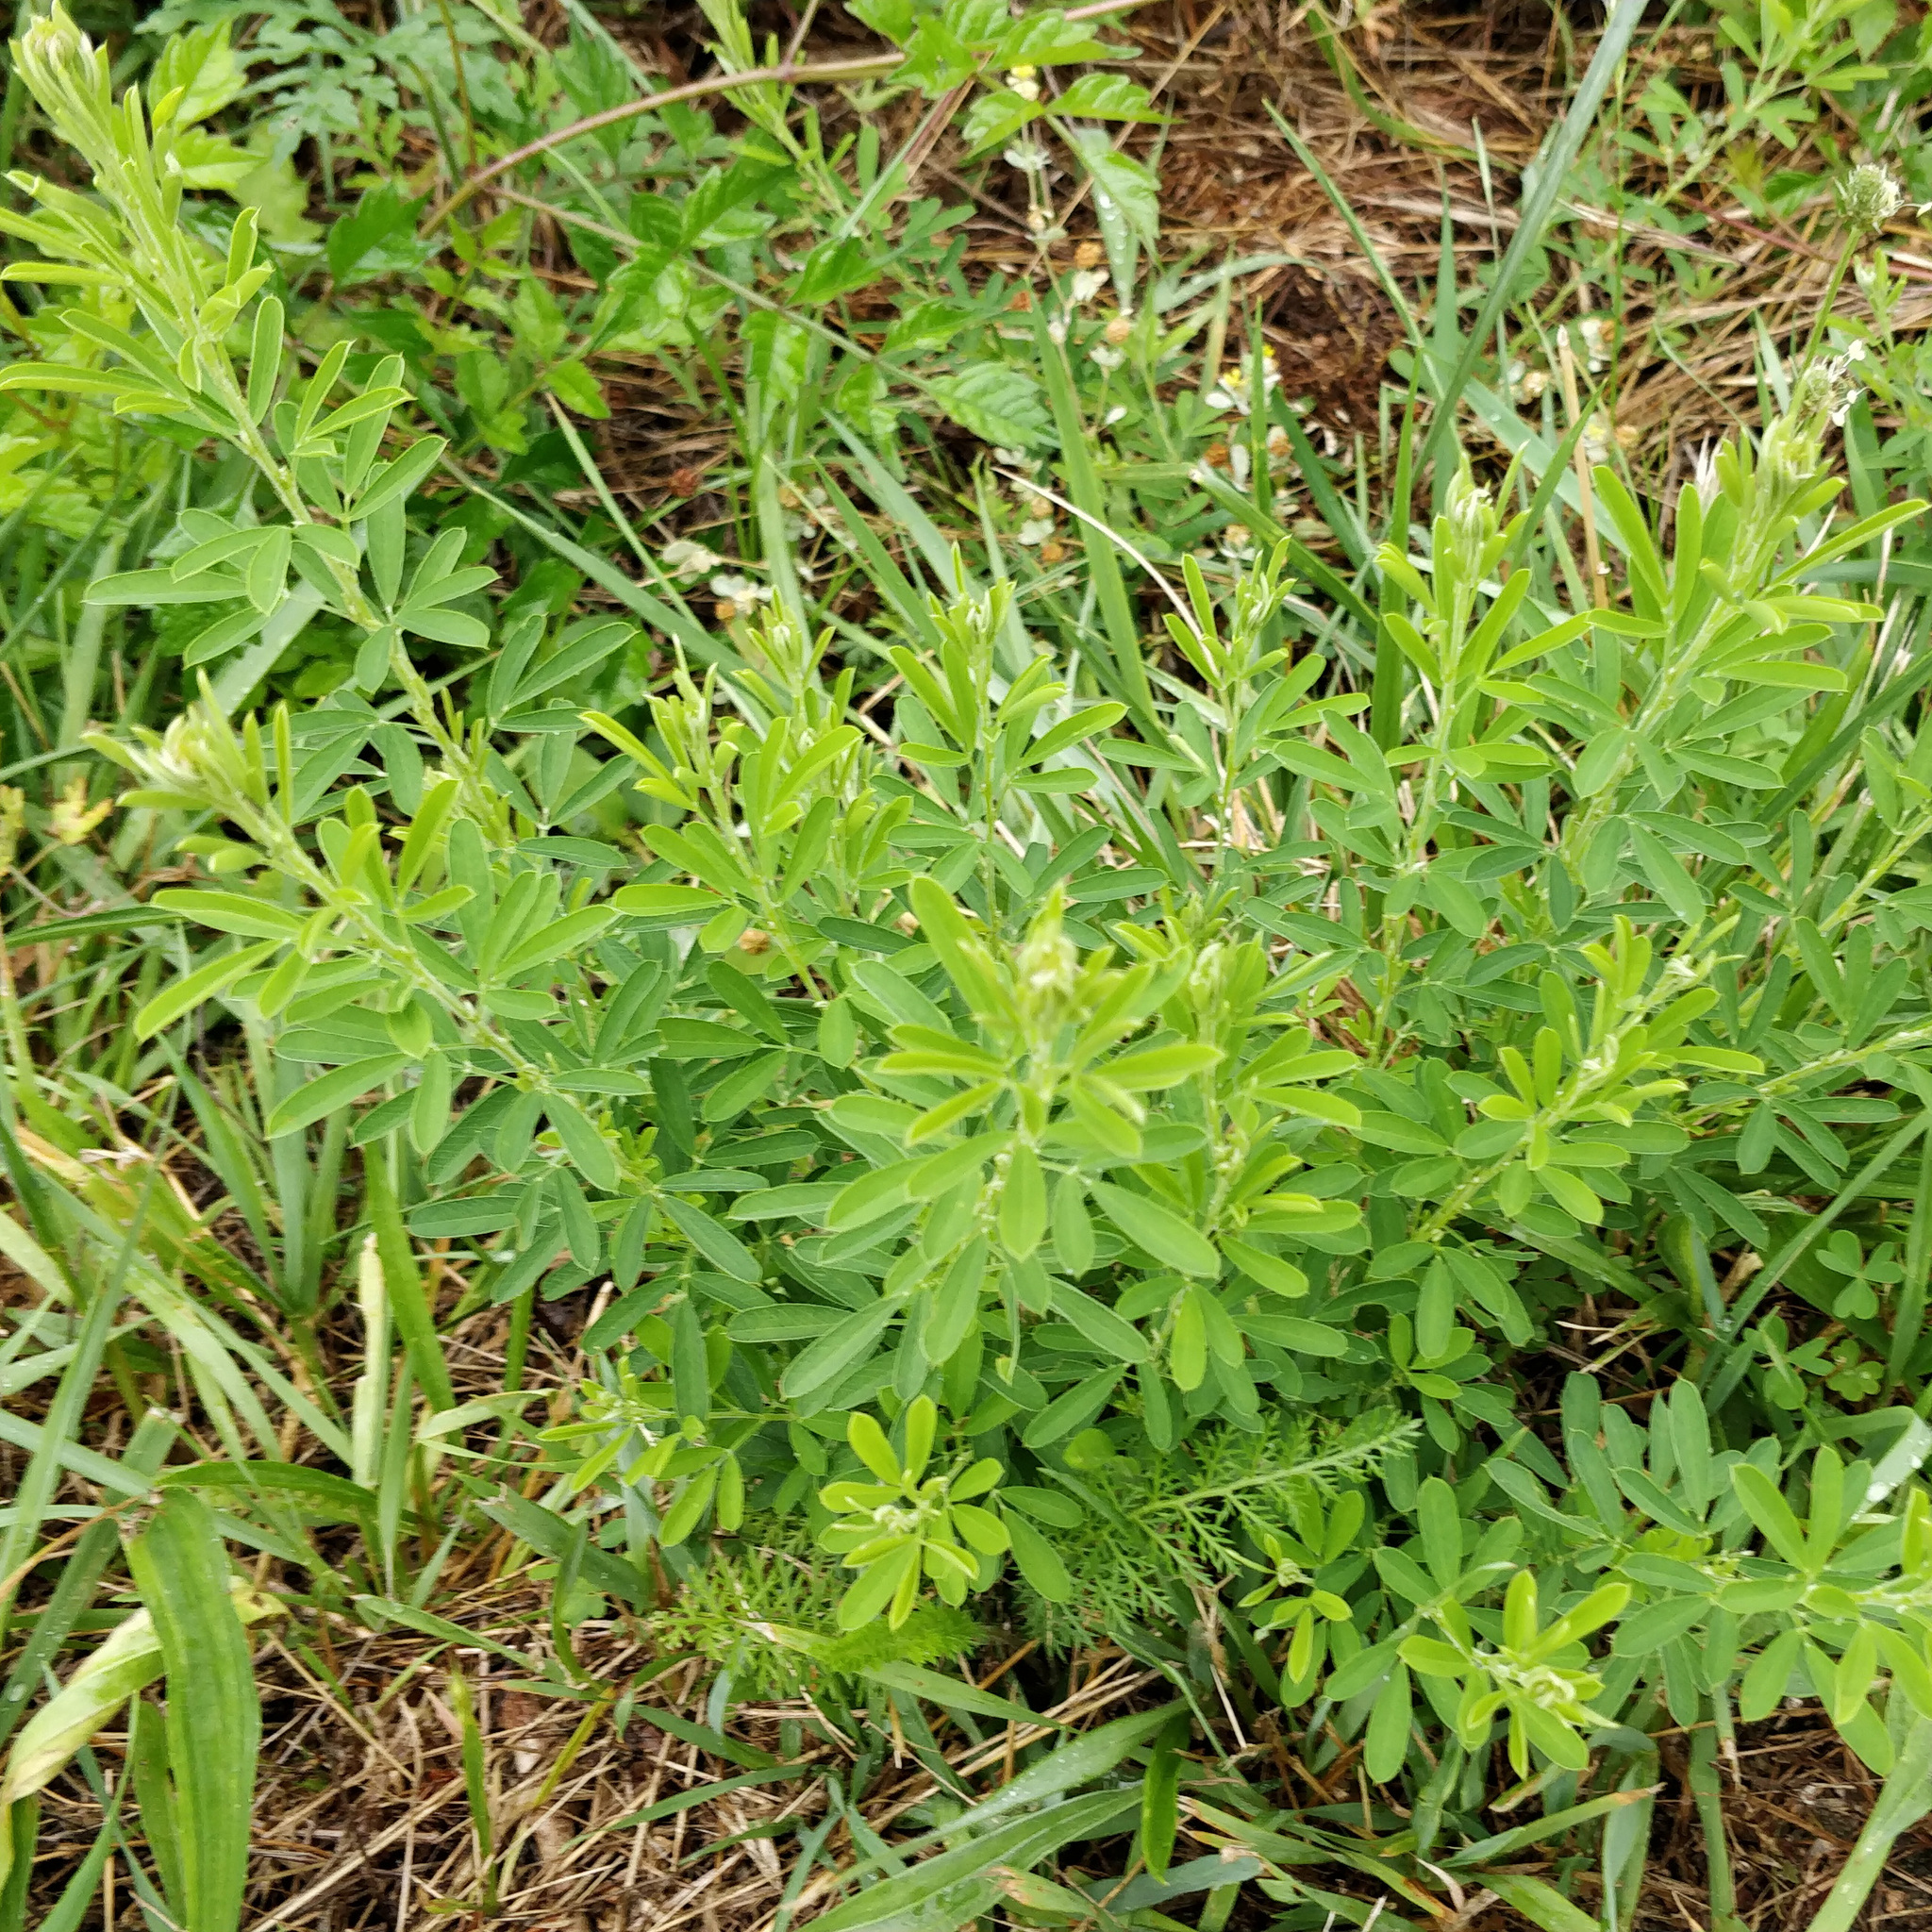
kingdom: Plantae
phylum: Tracheophyta
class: Magnoliopsida
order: Fabales
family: Fabaceae
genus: Lespedeza
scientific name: Lespedeza cuneata
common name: Chinese bush-clover
